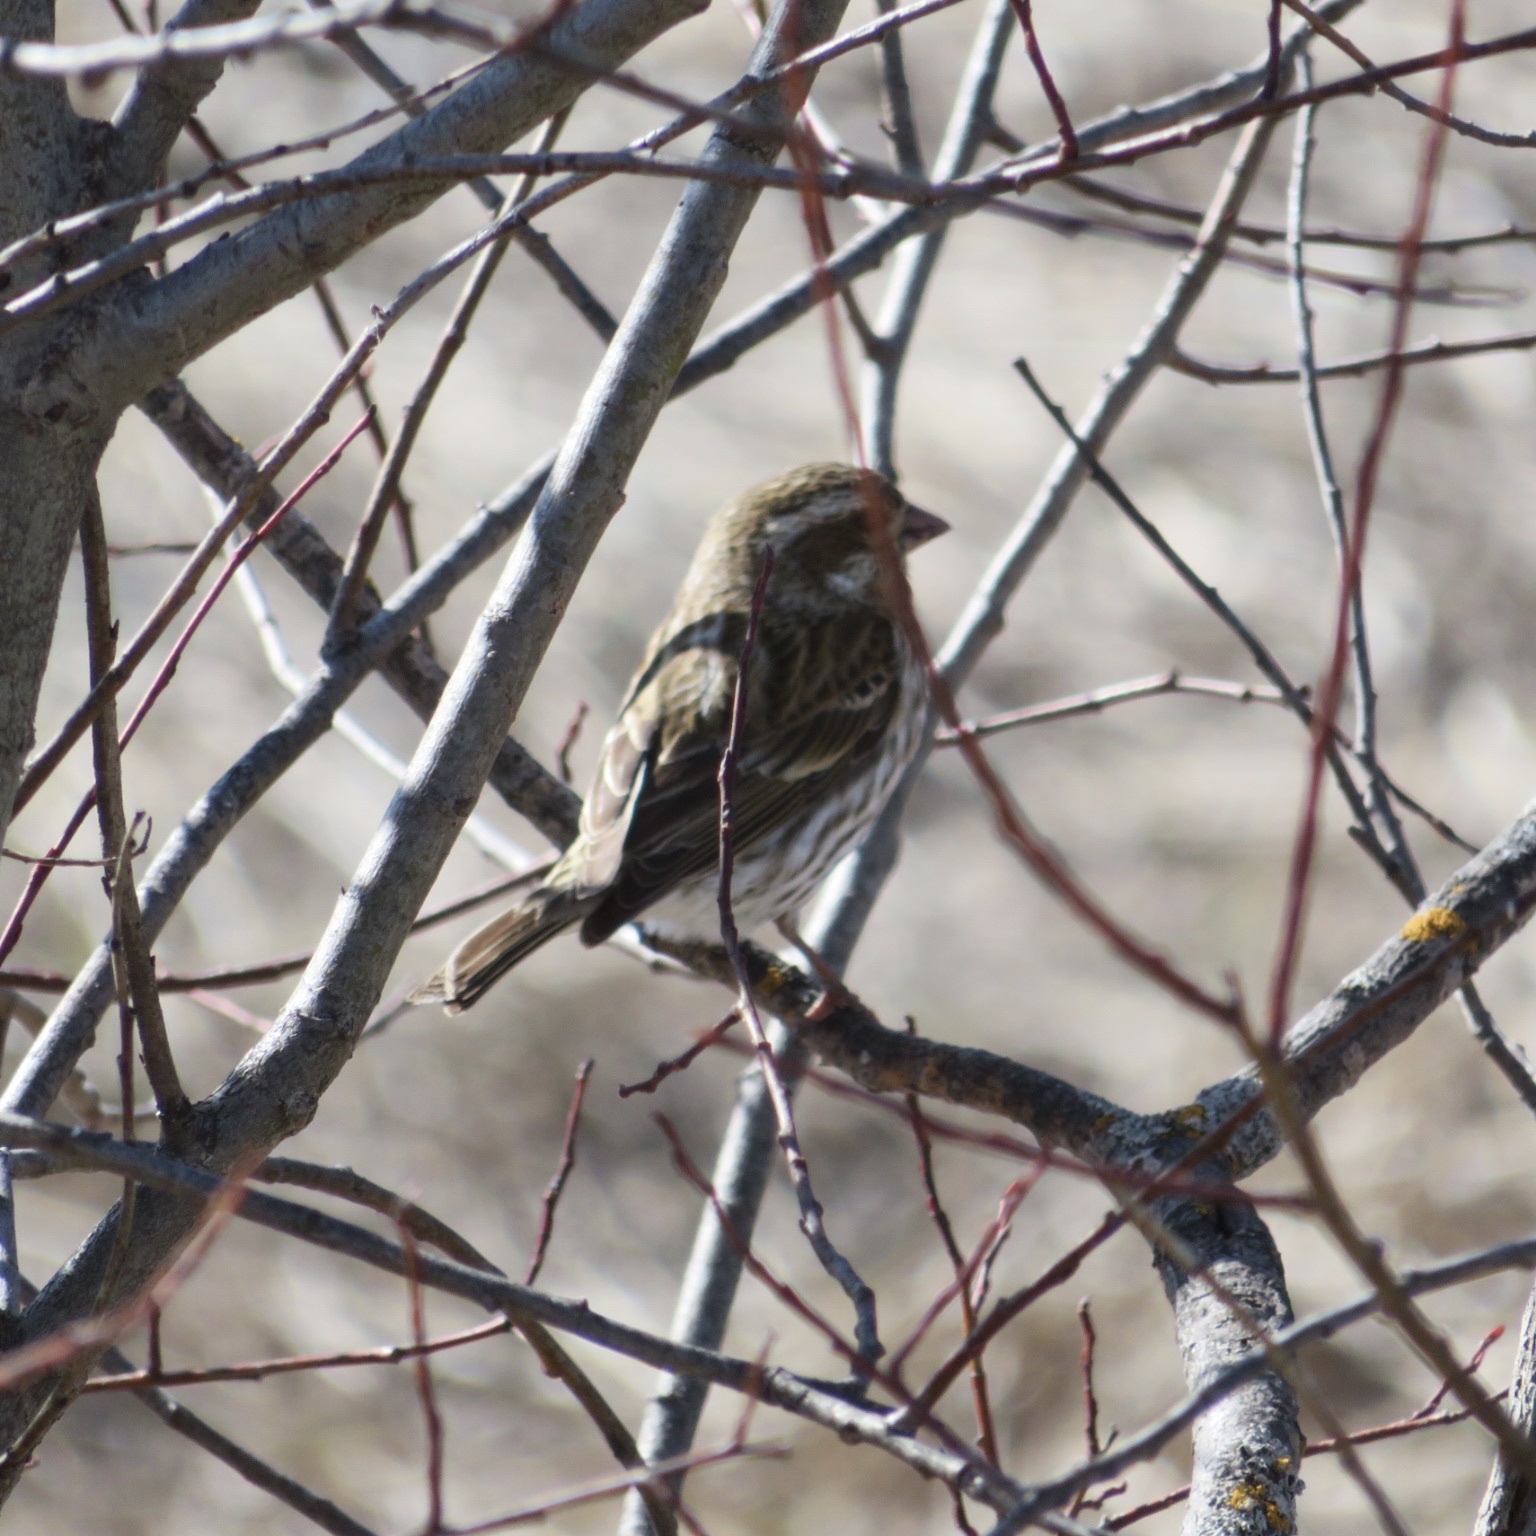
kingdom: Animalia
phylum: Chordata
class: Aves
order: Passeriformes
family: Fringillidae
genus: Haemorhous
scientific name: Haemorhous purpureus
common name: Purple finch
